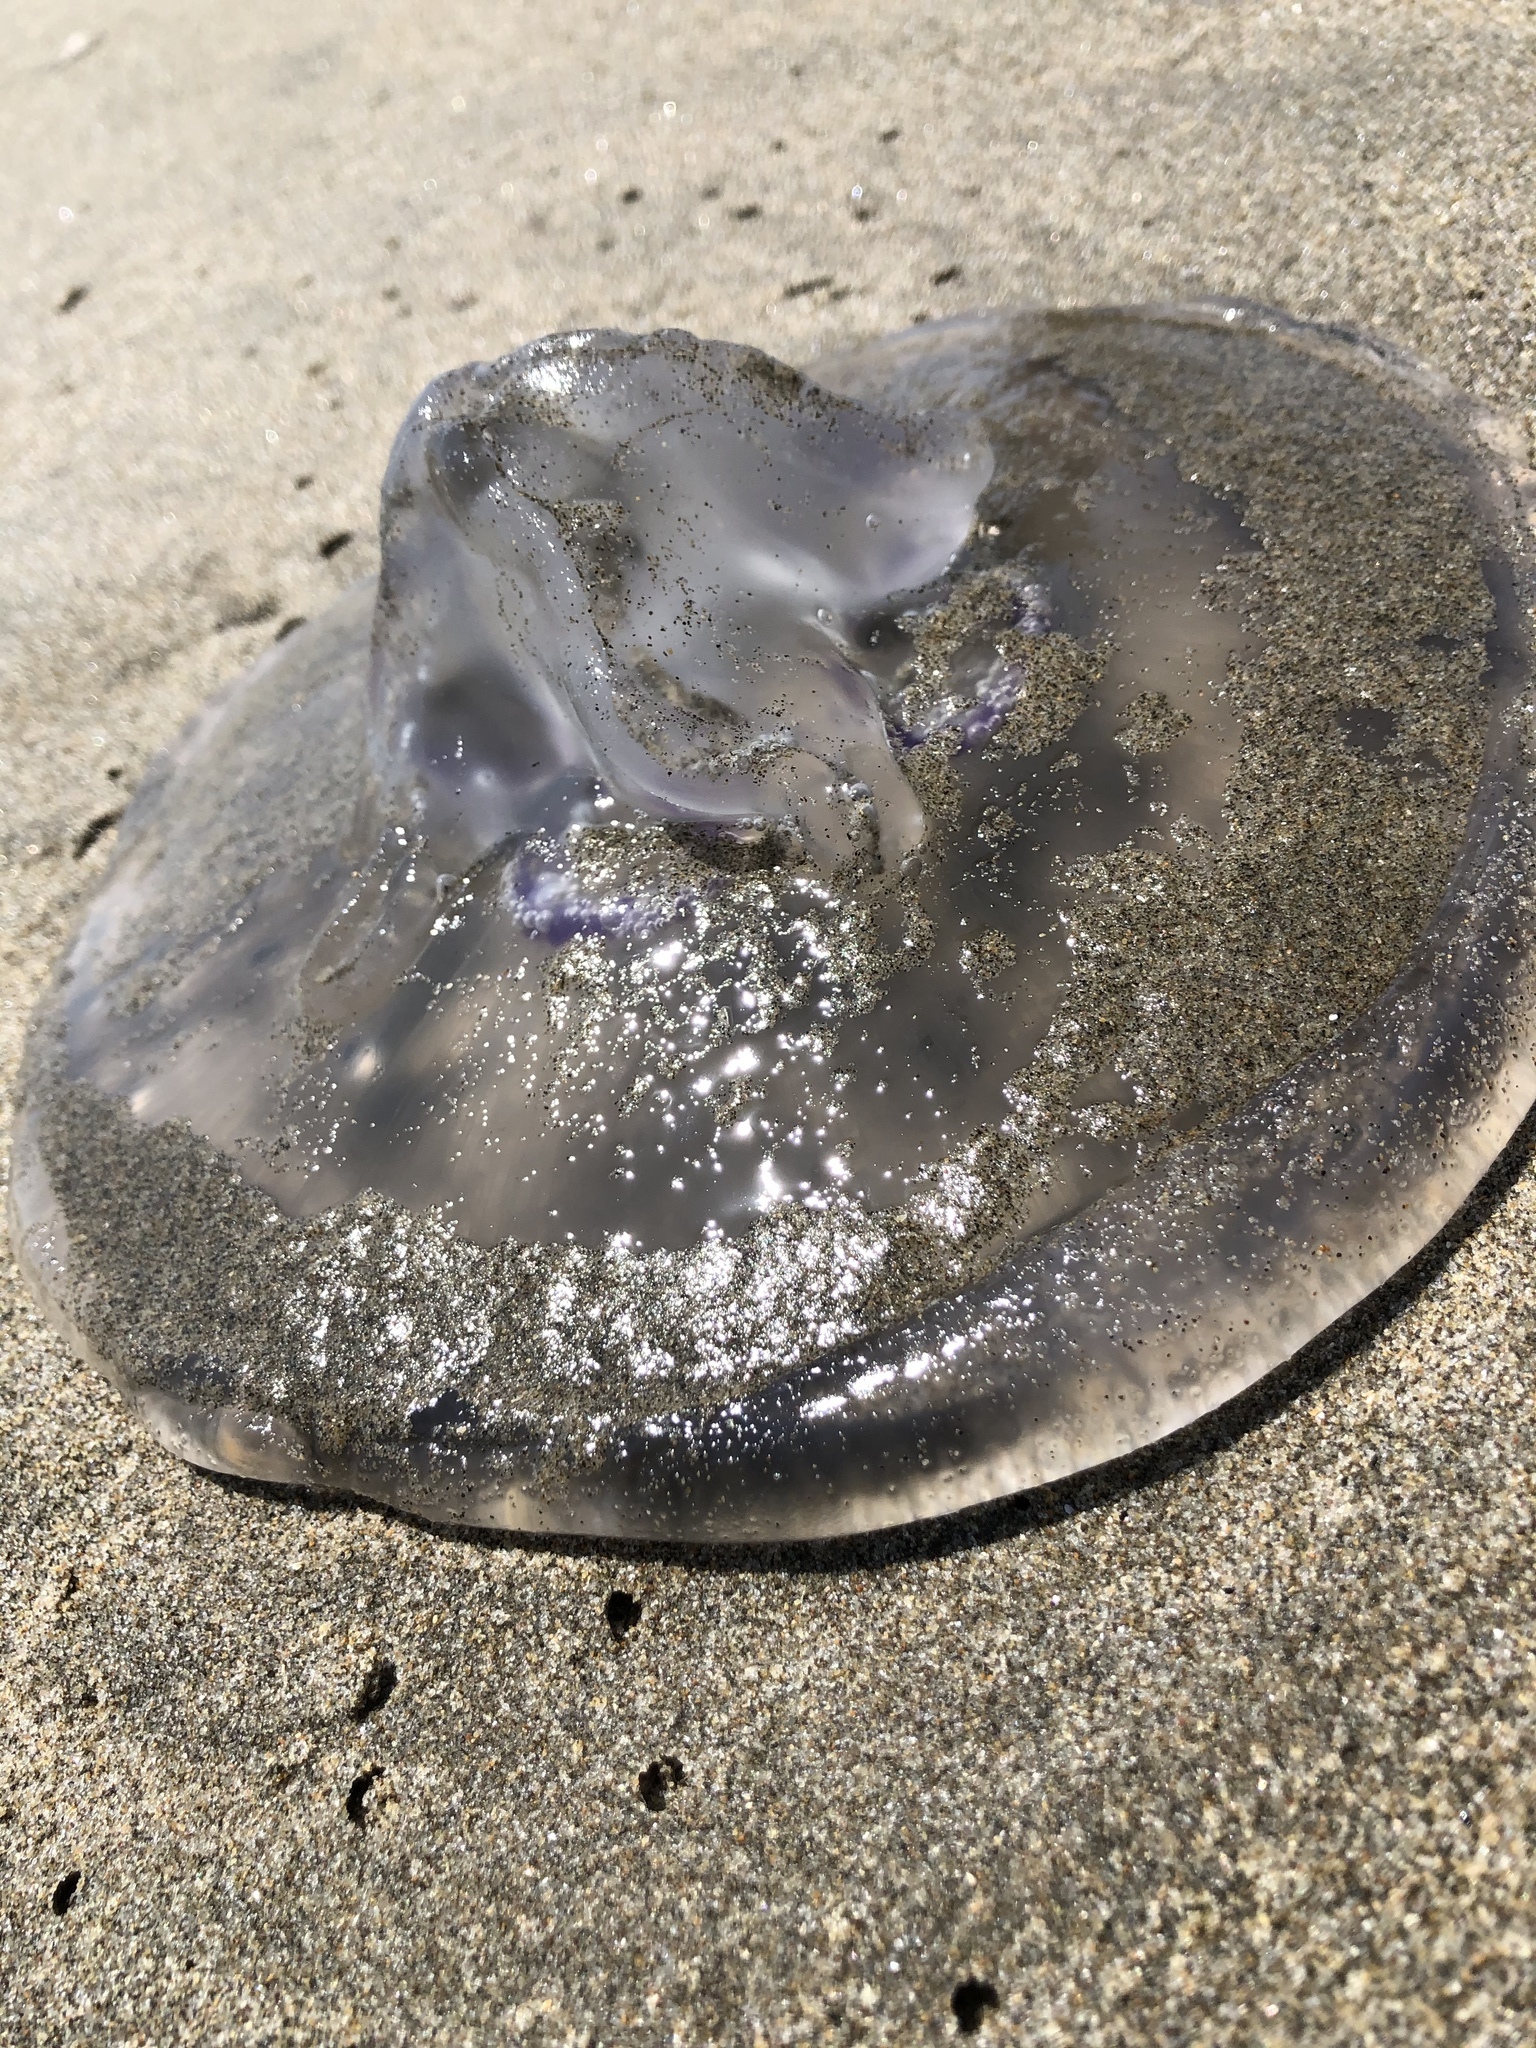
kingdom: Animalia
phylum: Cnidaria
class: Scyphozoa
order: Semaeostomeae
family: Ulmaridae
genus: Aurelia
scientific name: Aurelia labiata
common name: Pacific moon jelly
